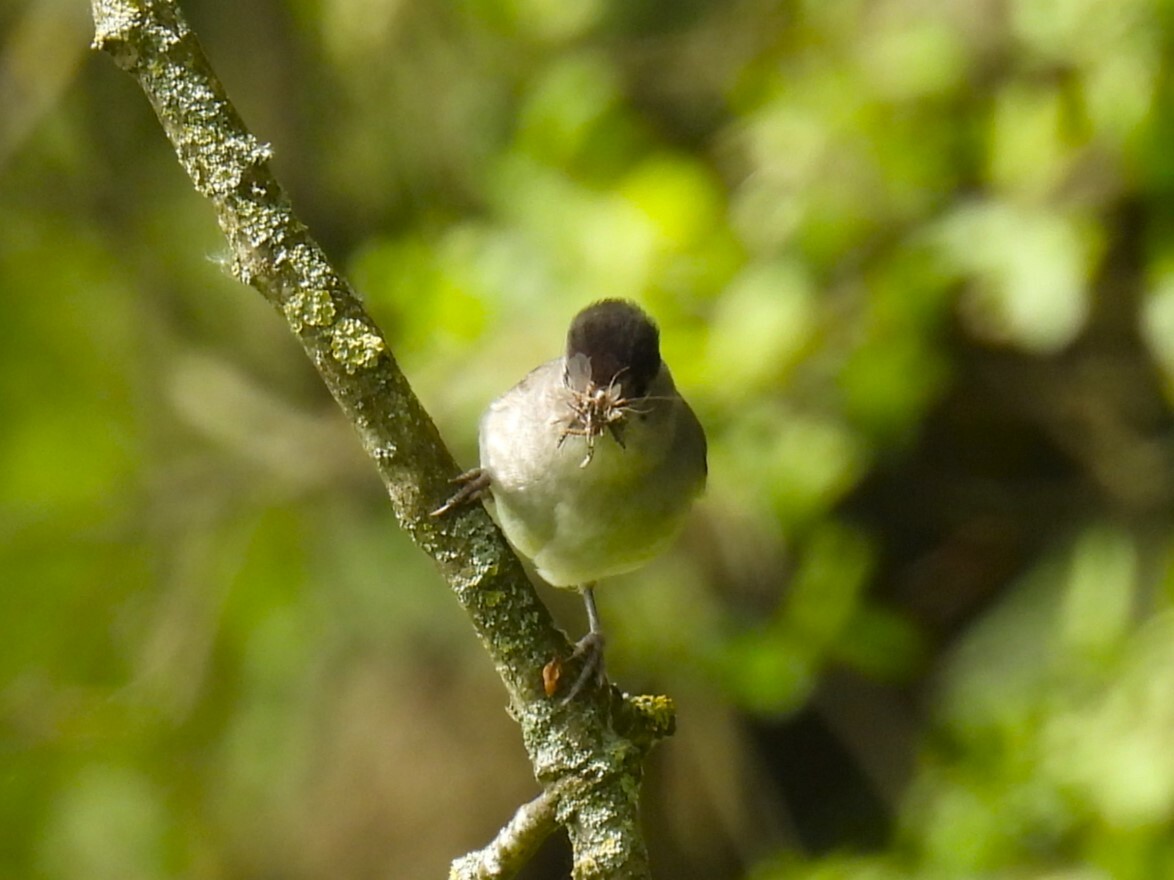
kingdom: Animalia
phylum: Chordata
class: Aves
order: Passeriformes
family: Sylviidae
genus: Sylvia
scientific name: Sylvia atricapilla
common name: Eurasian blackcap
